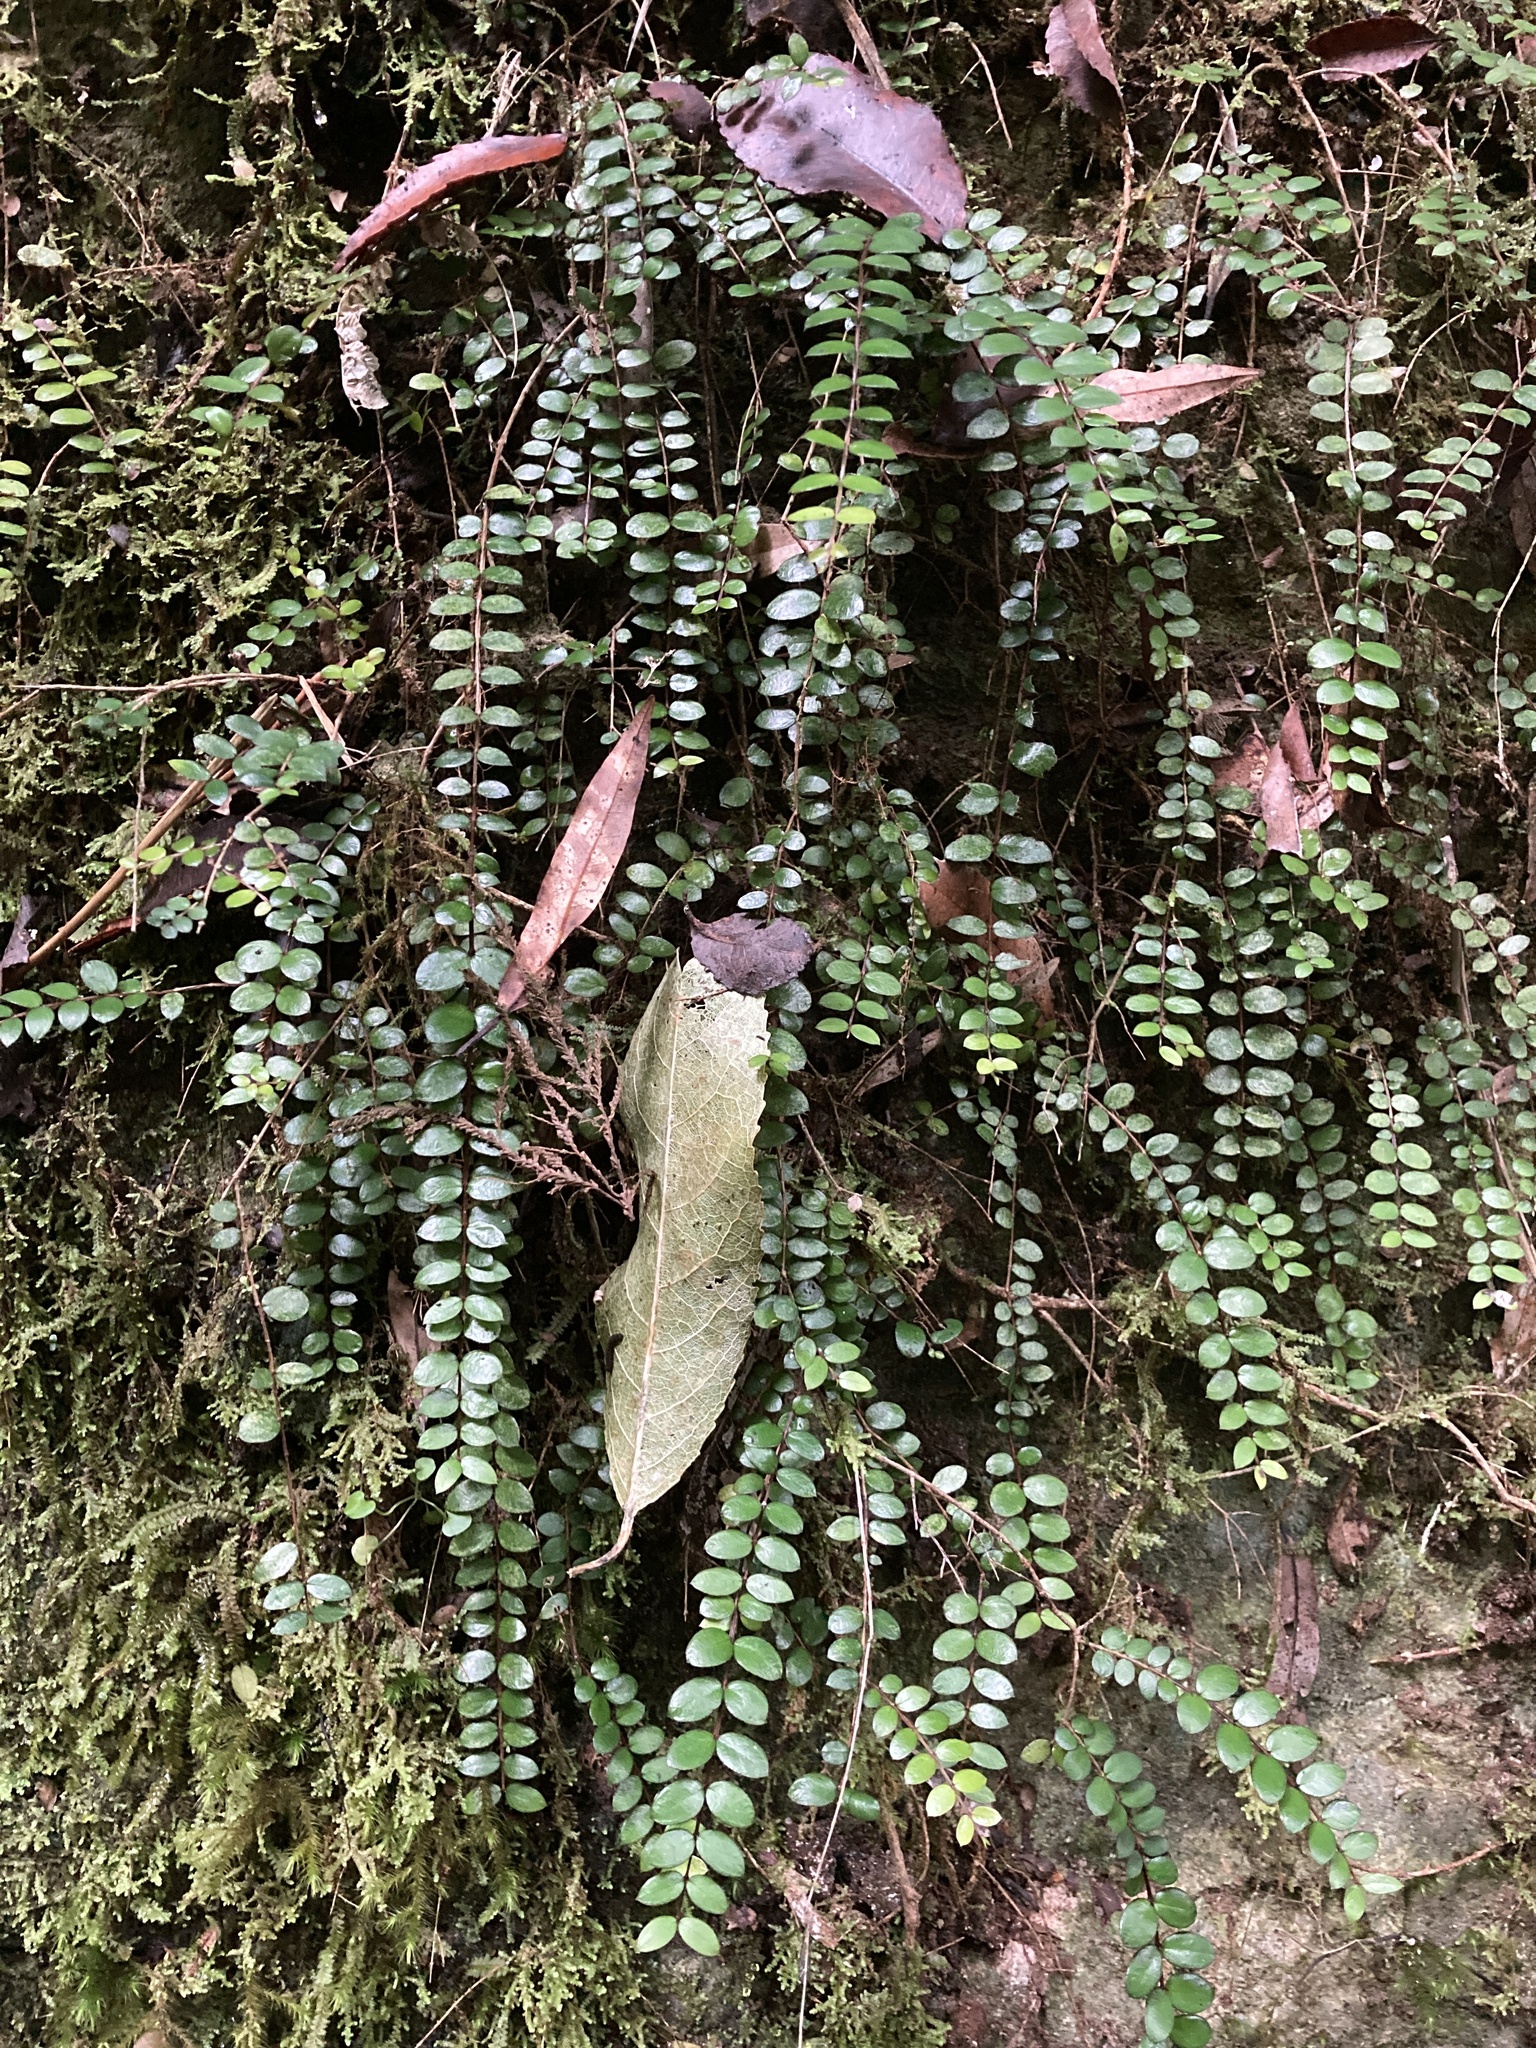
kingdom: Plantae
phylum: Tracheophyta
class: Magnoliopsida
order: Myrtales
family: Myrtaceae
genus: Metrosideros
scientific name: Metrosideros diffusa
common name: Small ratavine
